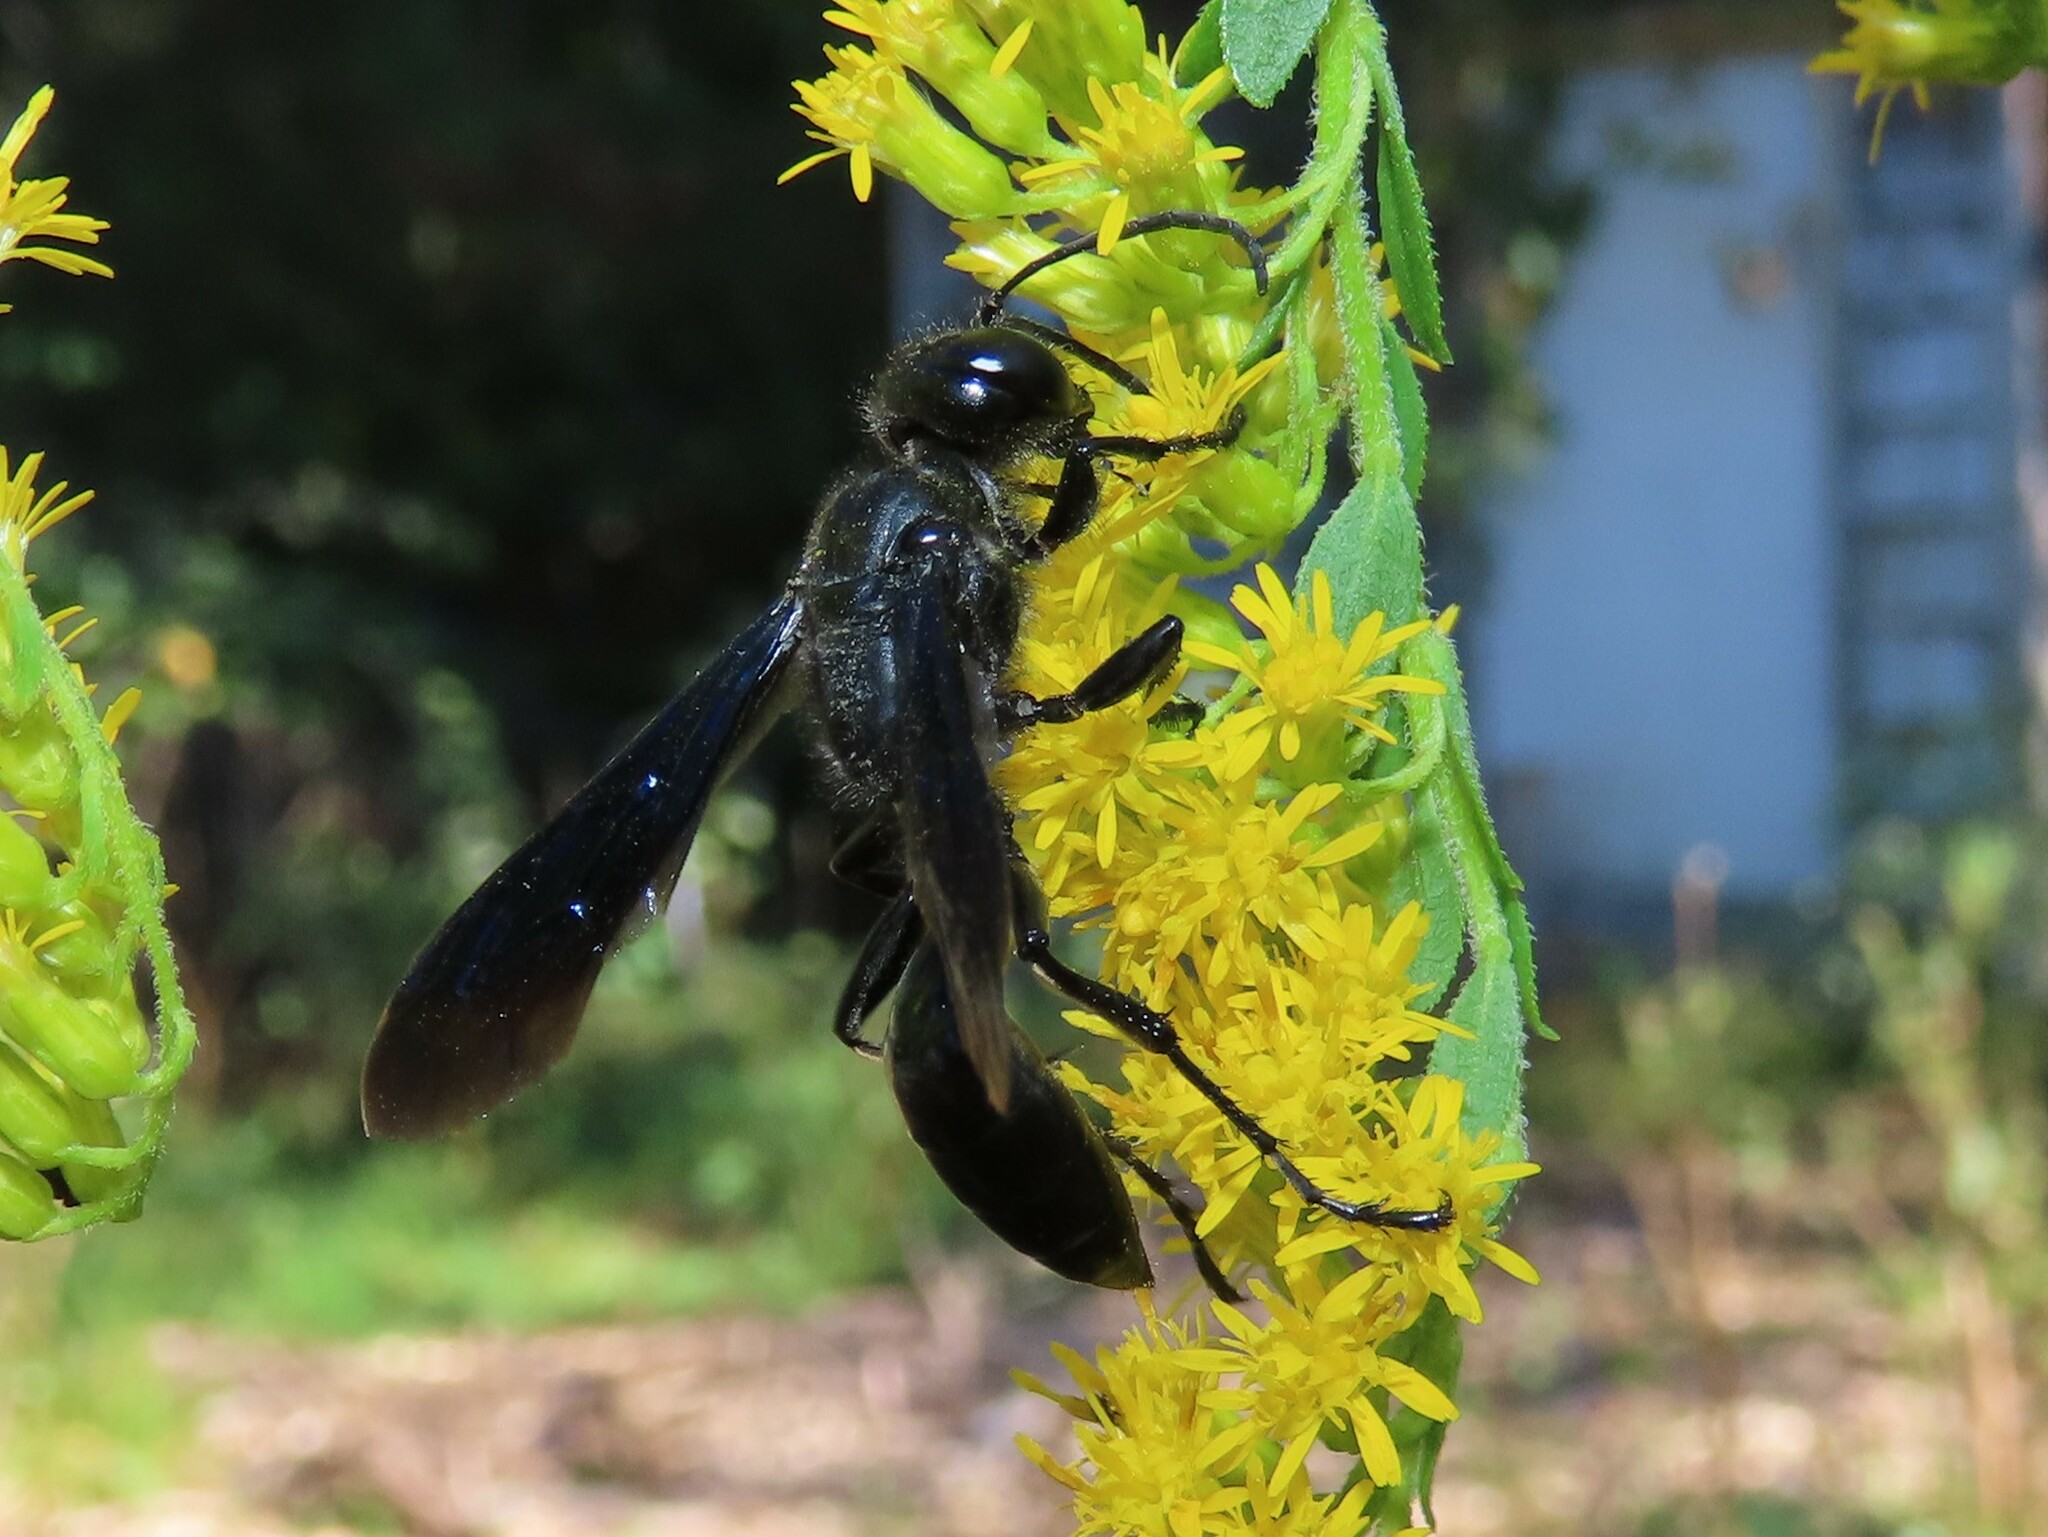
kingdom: Animalia
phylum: Arthropoda
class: Insecta
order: Hymenoptera
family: Sphecidae
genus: Isodontia
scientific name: Isodontia philadelphica
